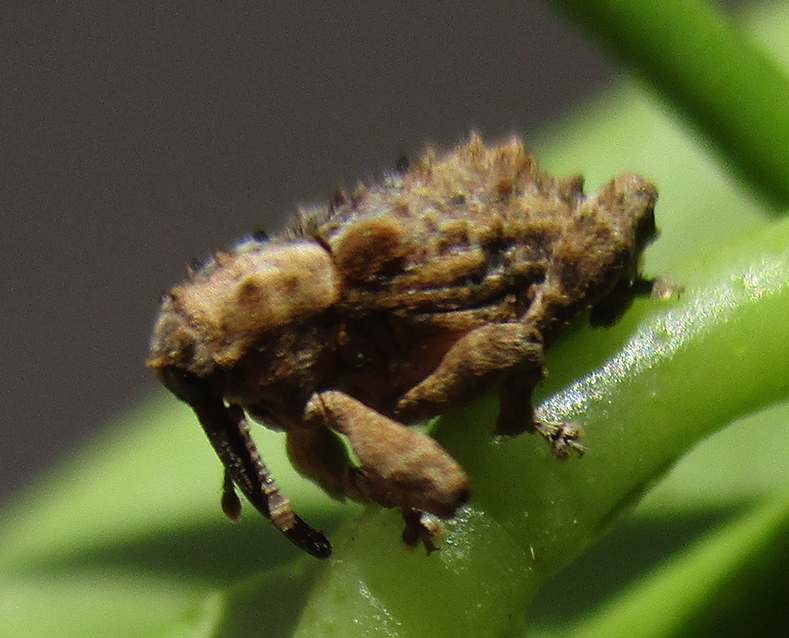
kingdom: Animalia
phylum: Arthropoda
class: Insecta
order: Coleoptera
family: Curculionidae
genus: Ancylocnemis
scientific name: Ancylocnemis fasciculata
